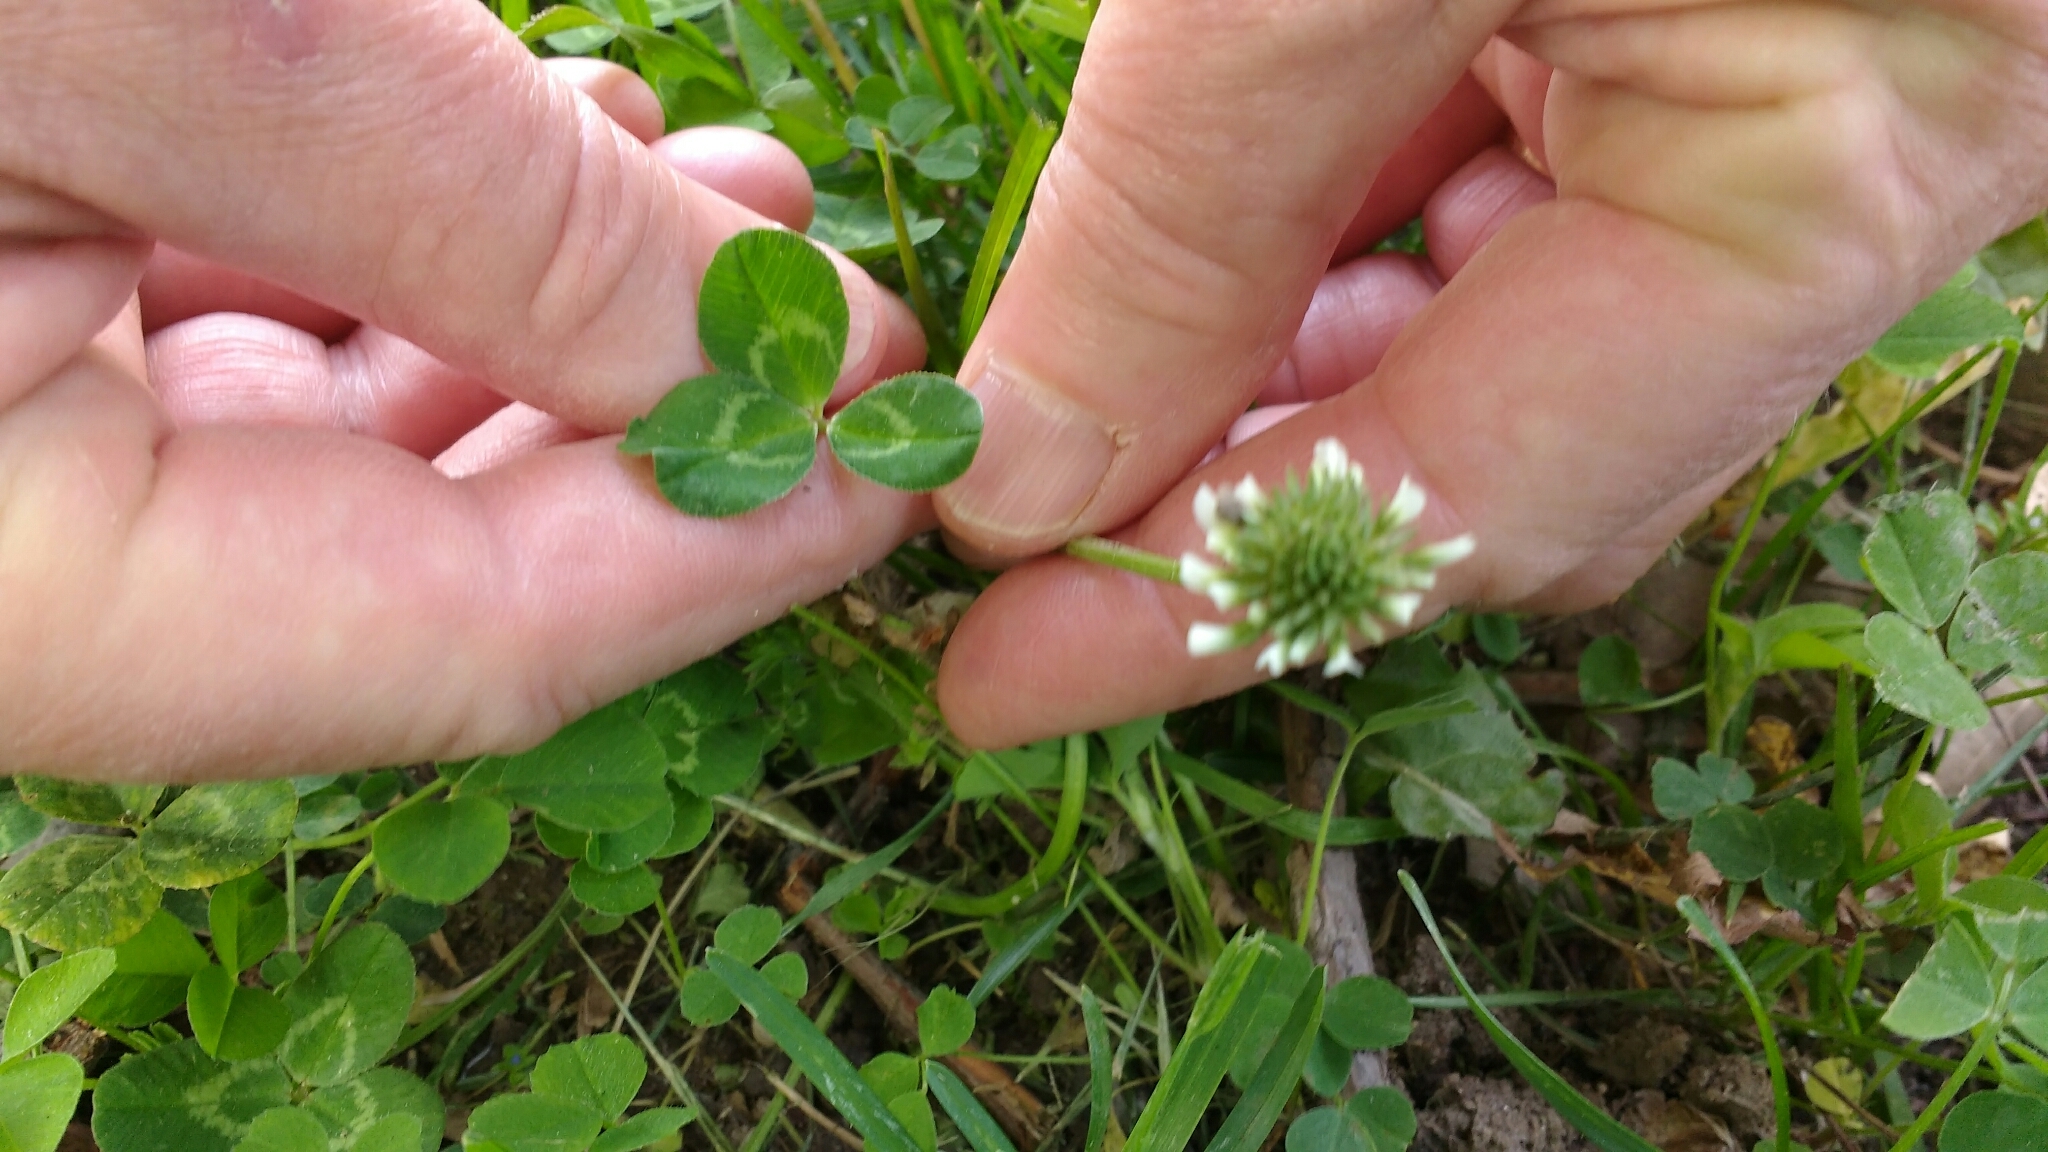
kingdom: Plantae
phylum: Tracheophyta
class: Magnoliopsida
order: Fabales
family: Fabaceae
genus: Trifolium
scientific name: Trifolium repens
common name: White clover
